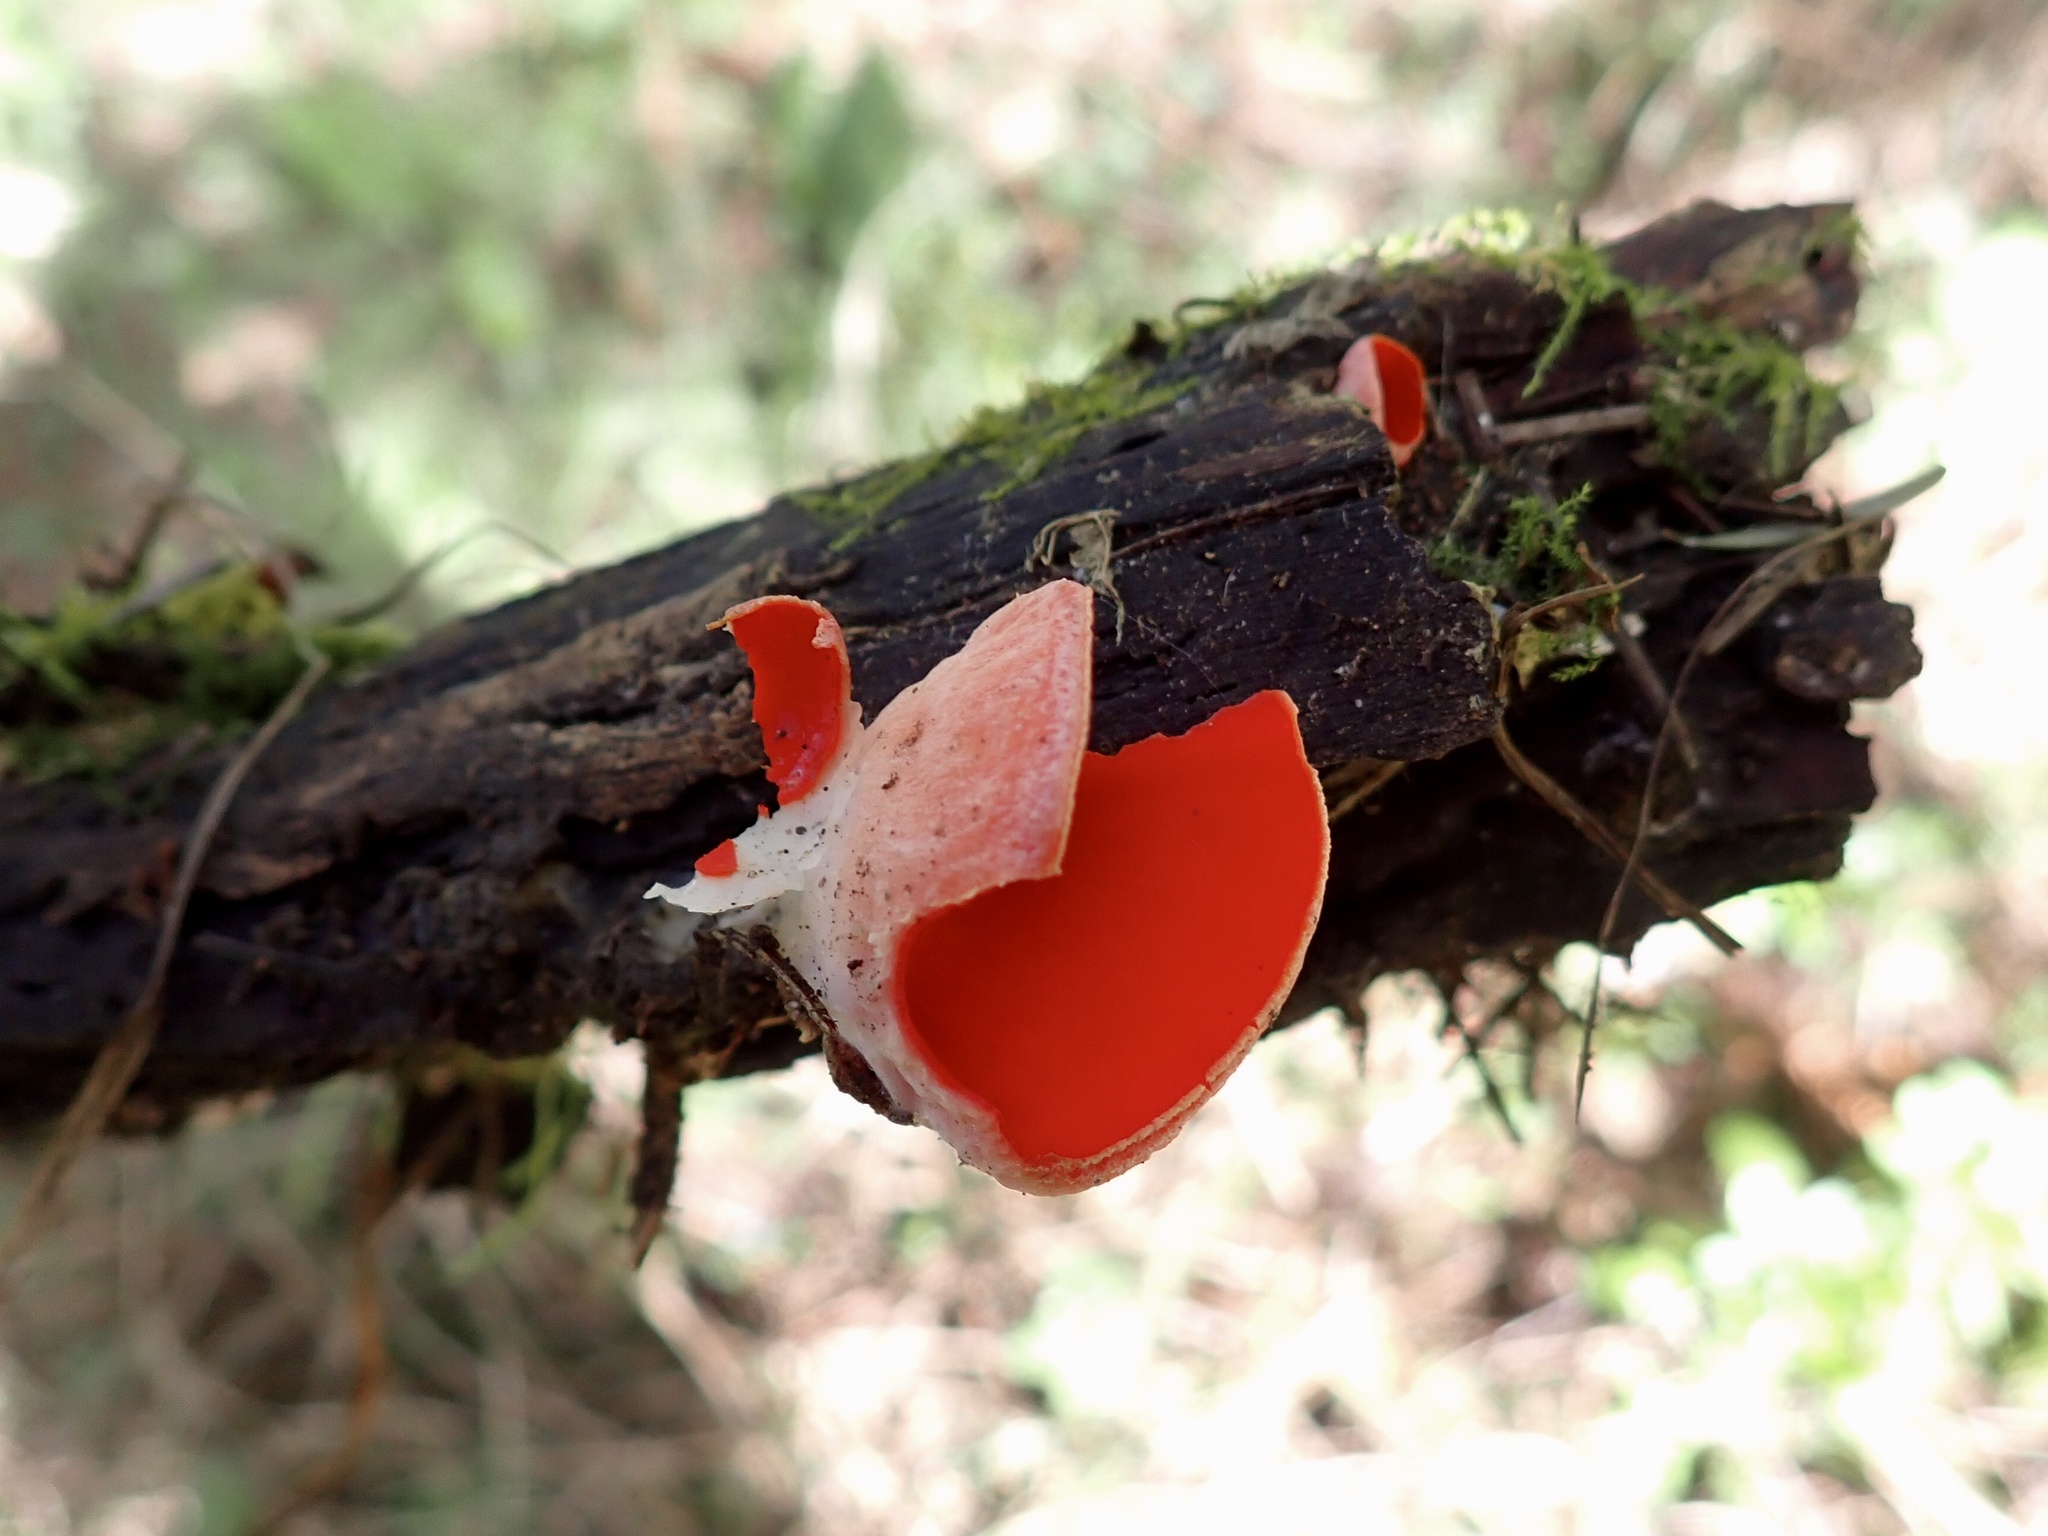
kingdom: Fungi
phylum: Ascomycota
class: Pezizomycetes
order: Pezizales
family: Sarcoscyphaceae
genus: Sarcoscypha
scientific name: Sarcoscypha coccinea
